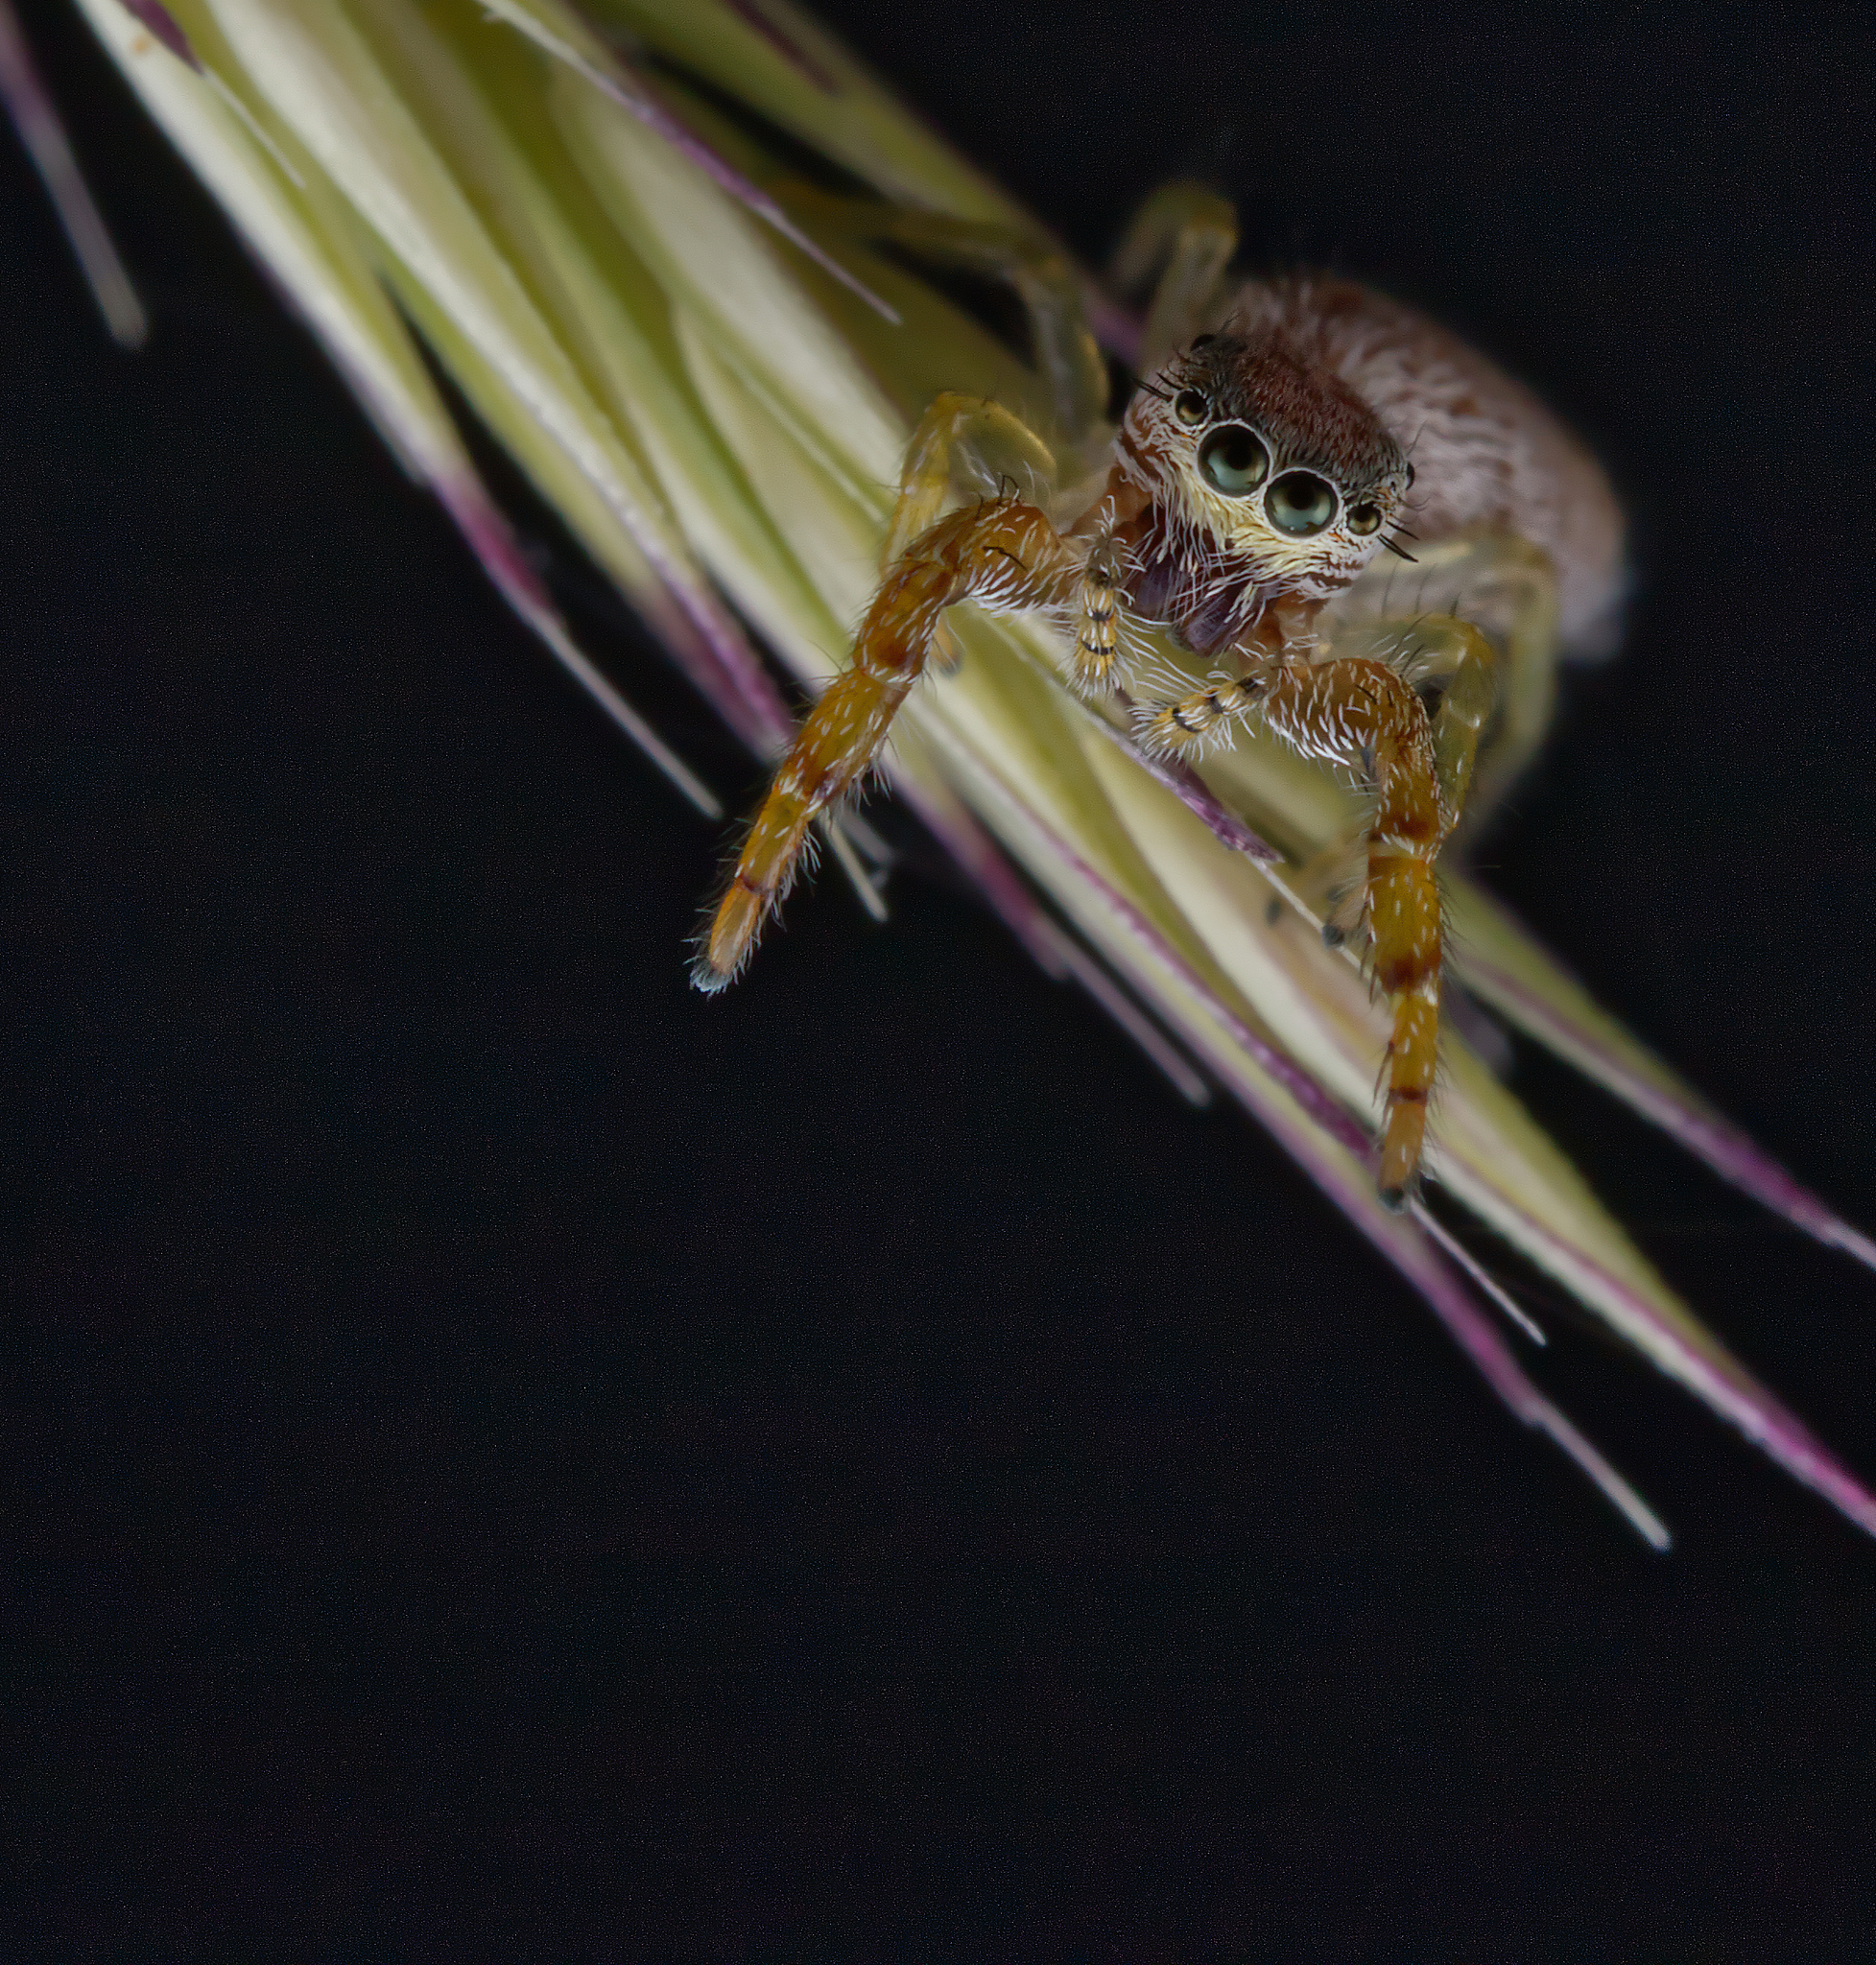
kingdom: Animalia
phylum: Arthropoda
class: Arachnida
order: Araneae
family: Salticidae
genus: Hentzia
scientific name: Hentzia palmarum
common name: Common hentz jumping spider
